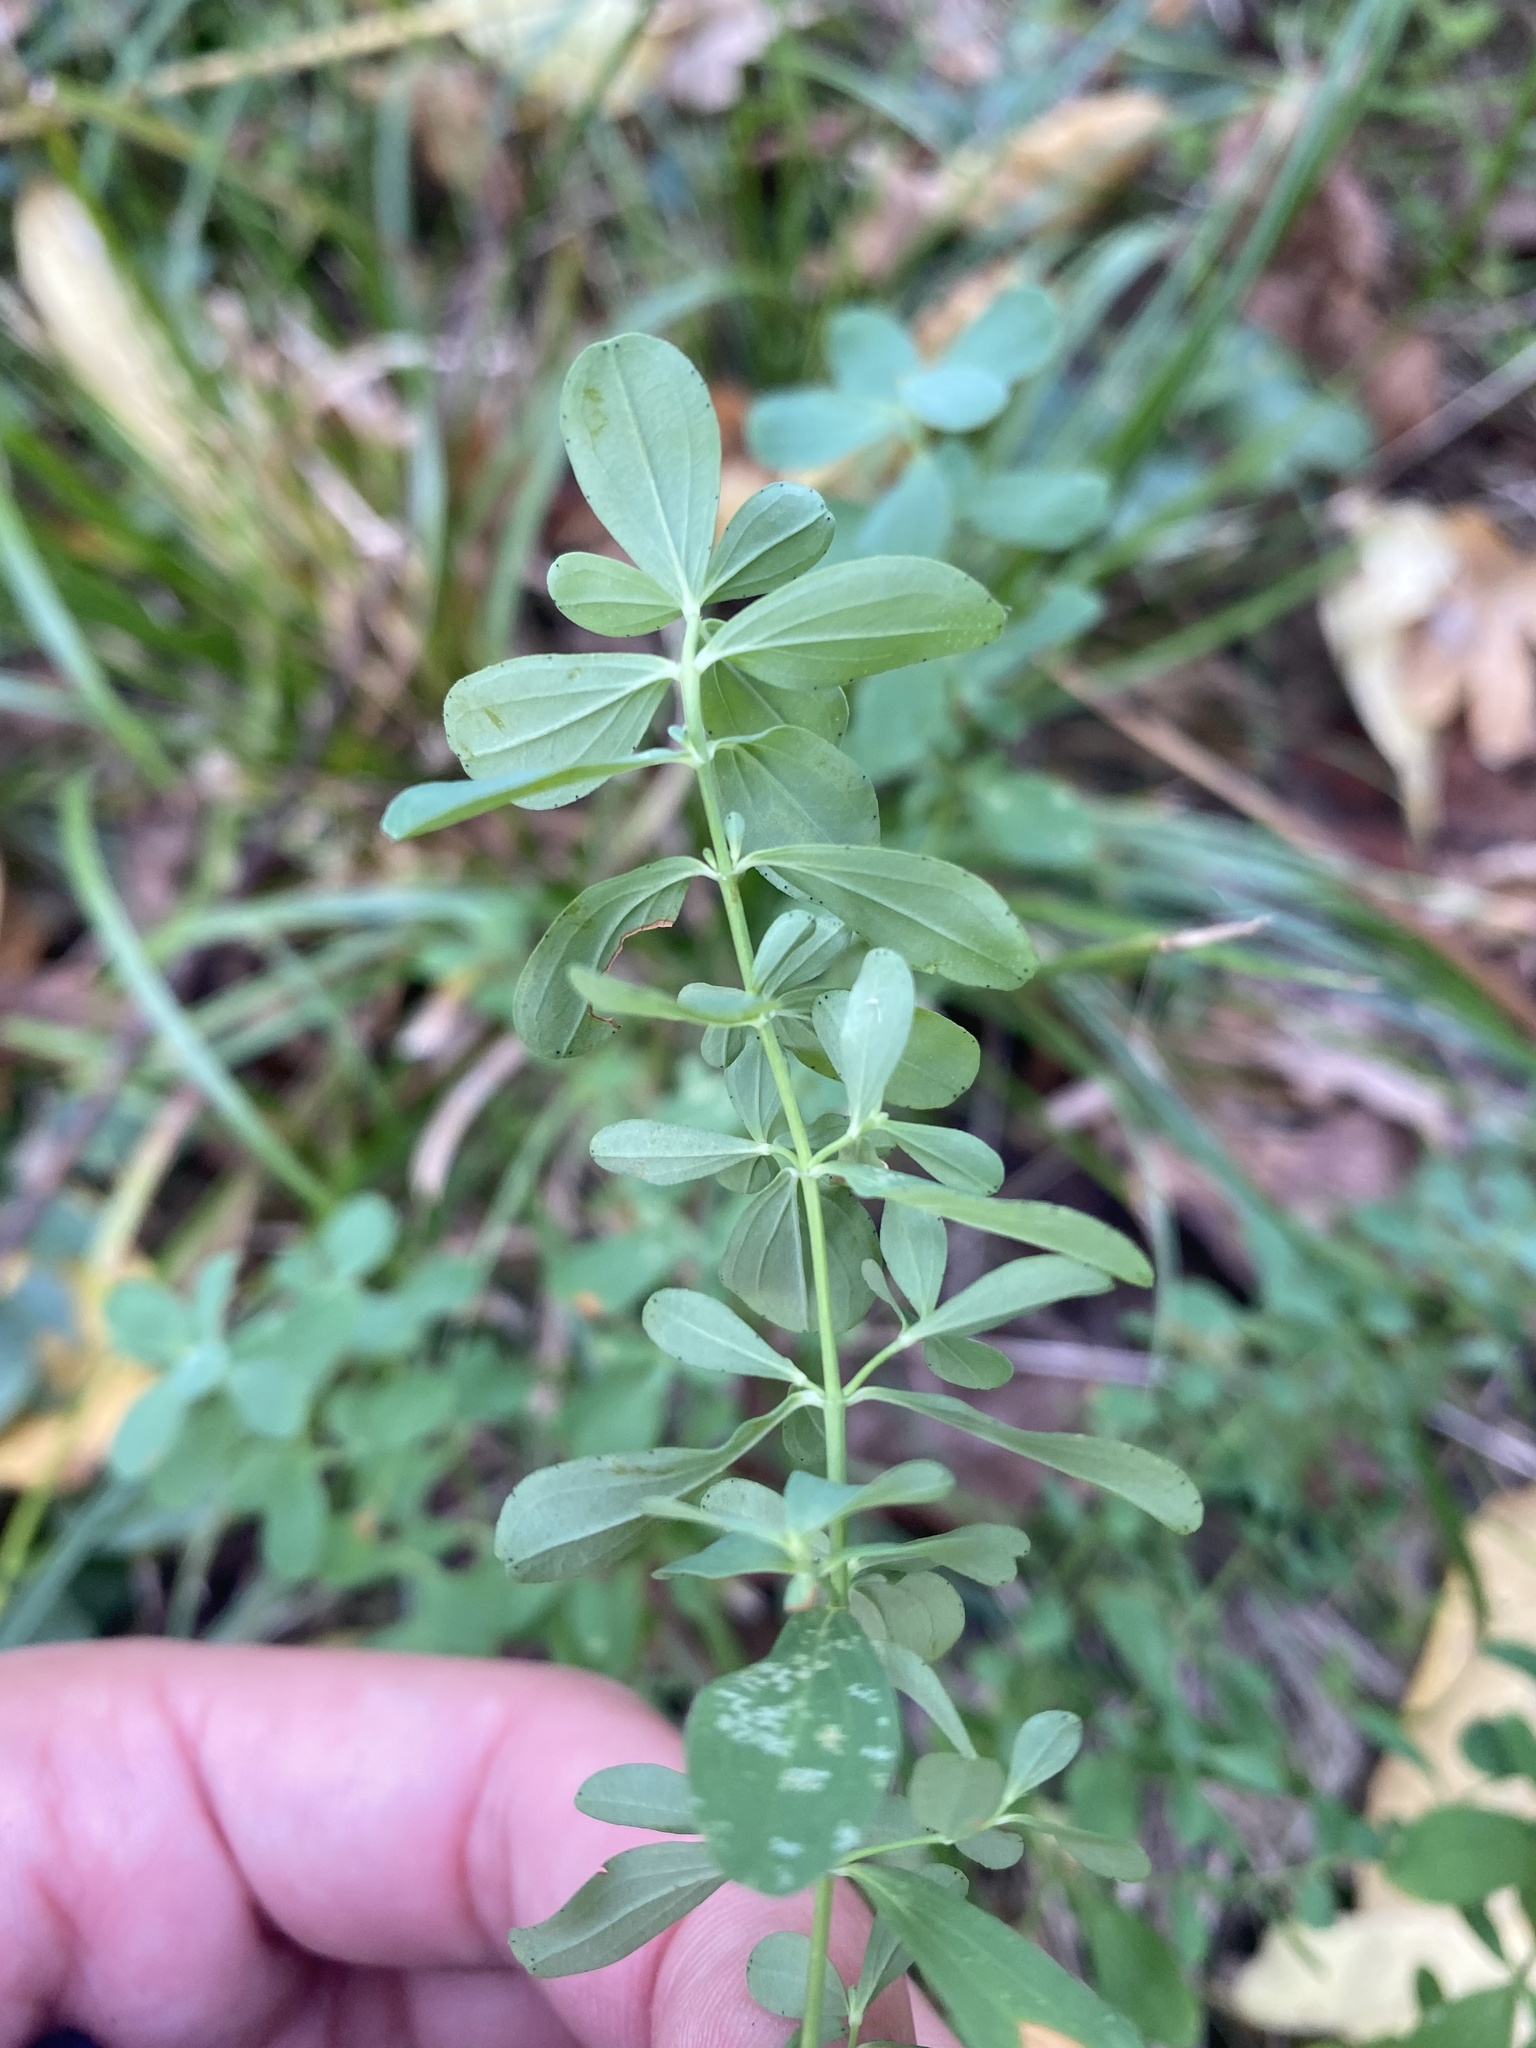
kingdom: Plantae
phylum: Tracheophyta
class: Magnoliopsida
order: Malpighiales
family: Hypericaceae
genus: Hypericum
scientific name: Hypericum perforatum
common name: Common st. johnswort
